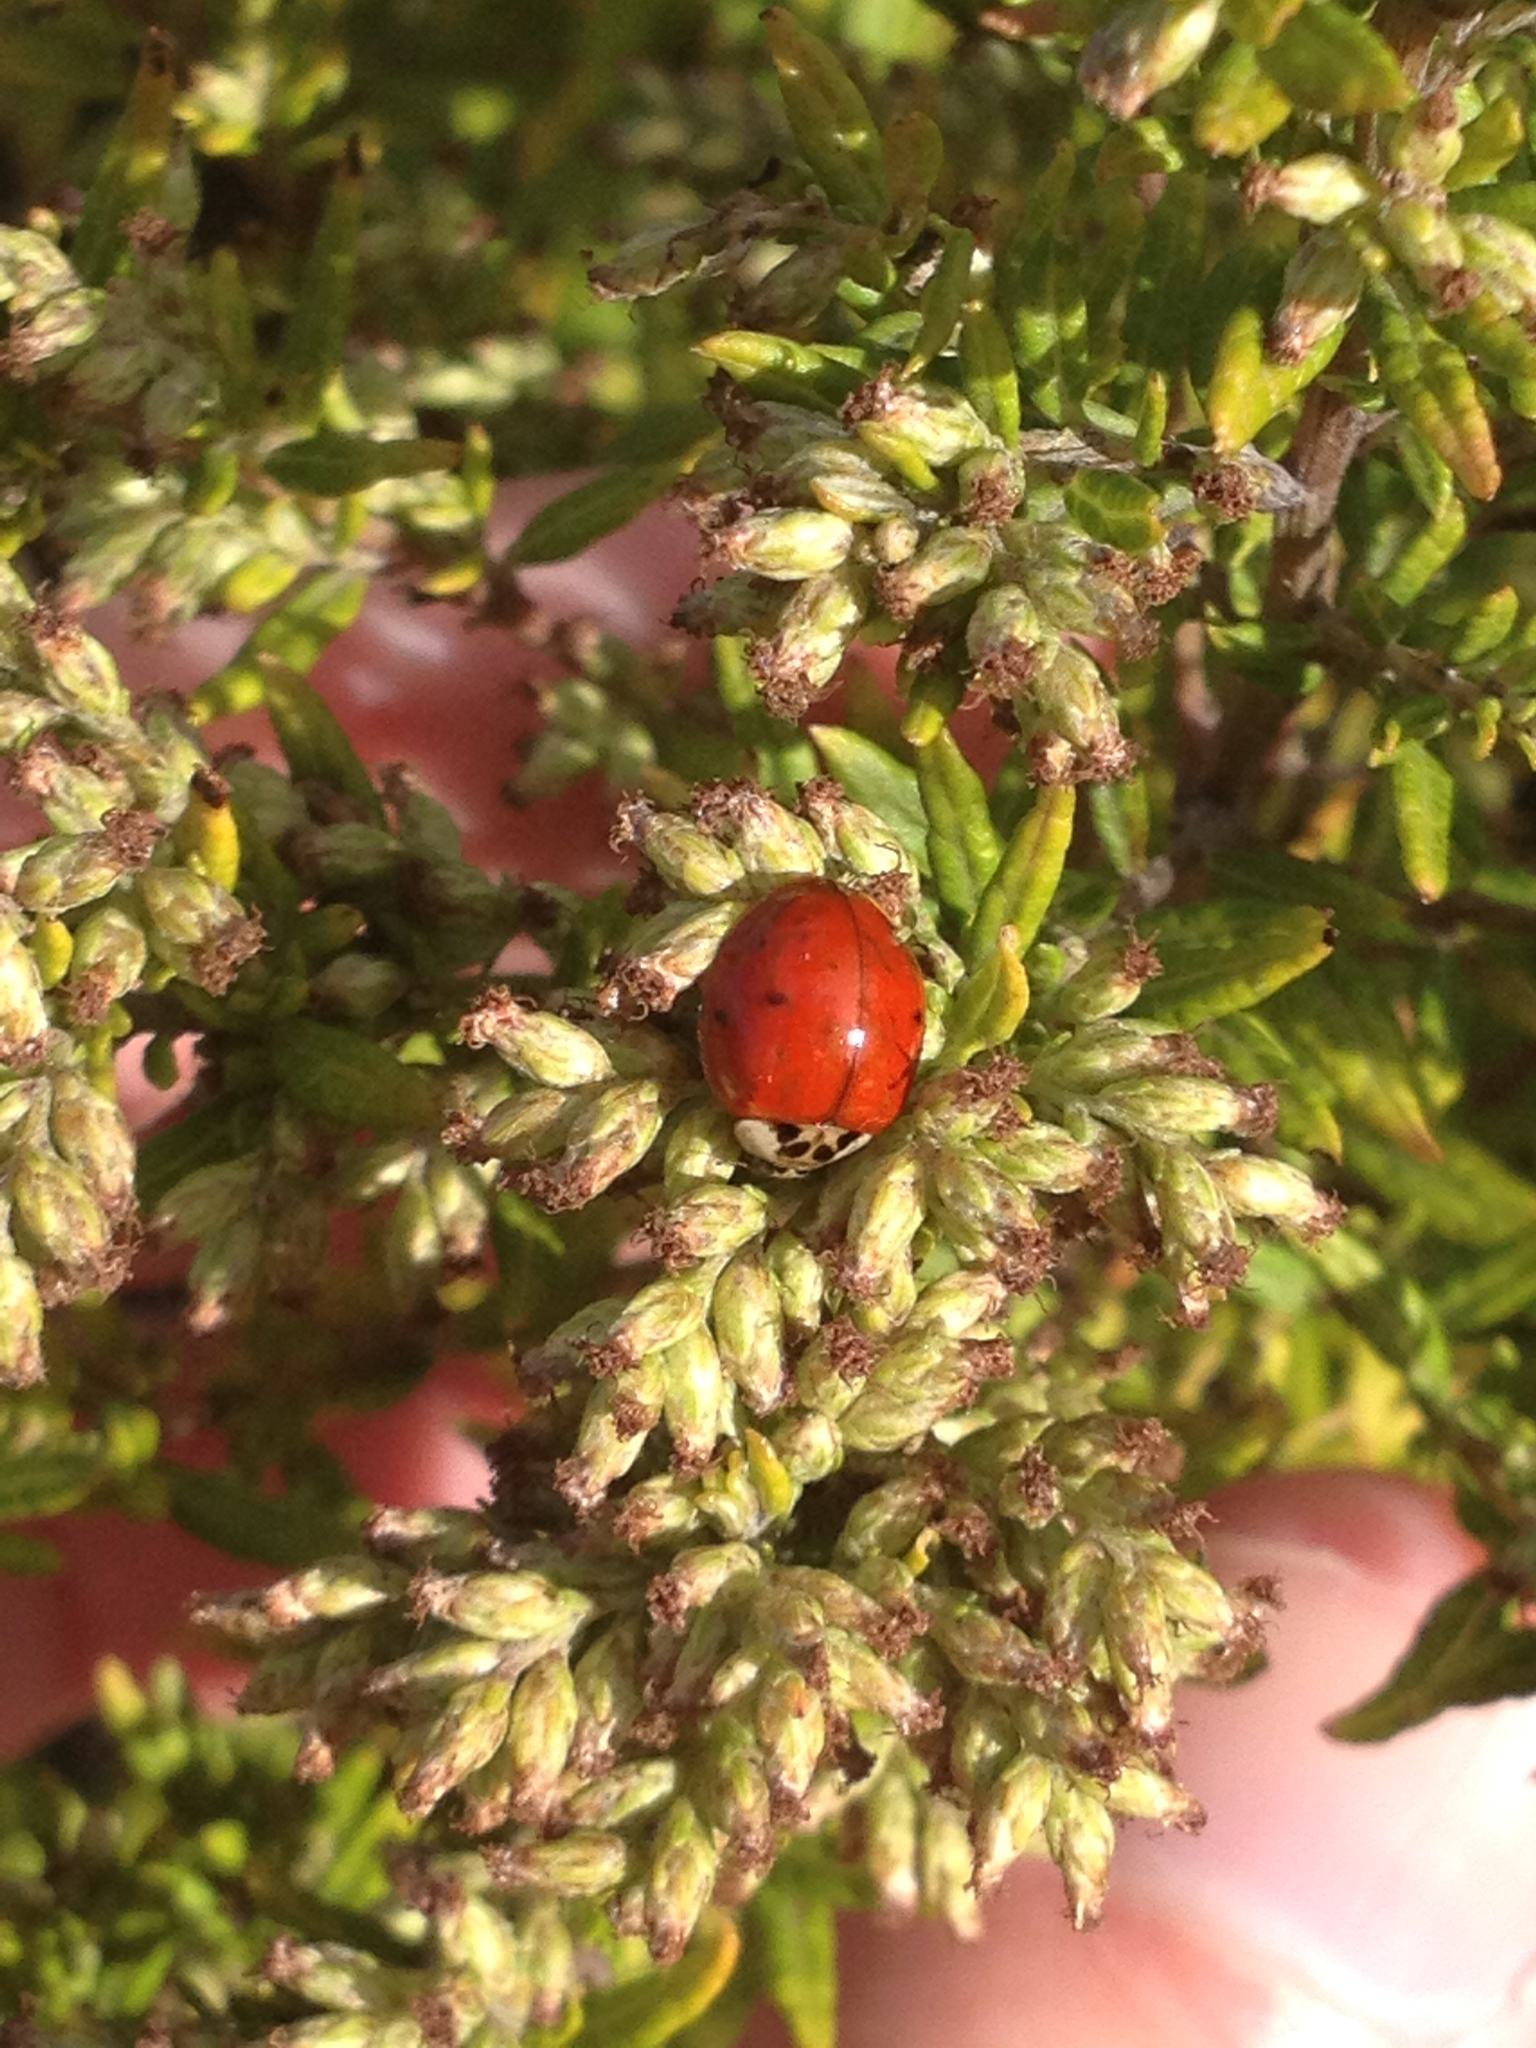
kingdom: Animalia
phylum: Arthropoda
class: Insecta
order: Coleoptera
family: Coccinellidae
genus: Harmonia
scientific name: Harmonia axyridis
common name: Harlequin ladybird
